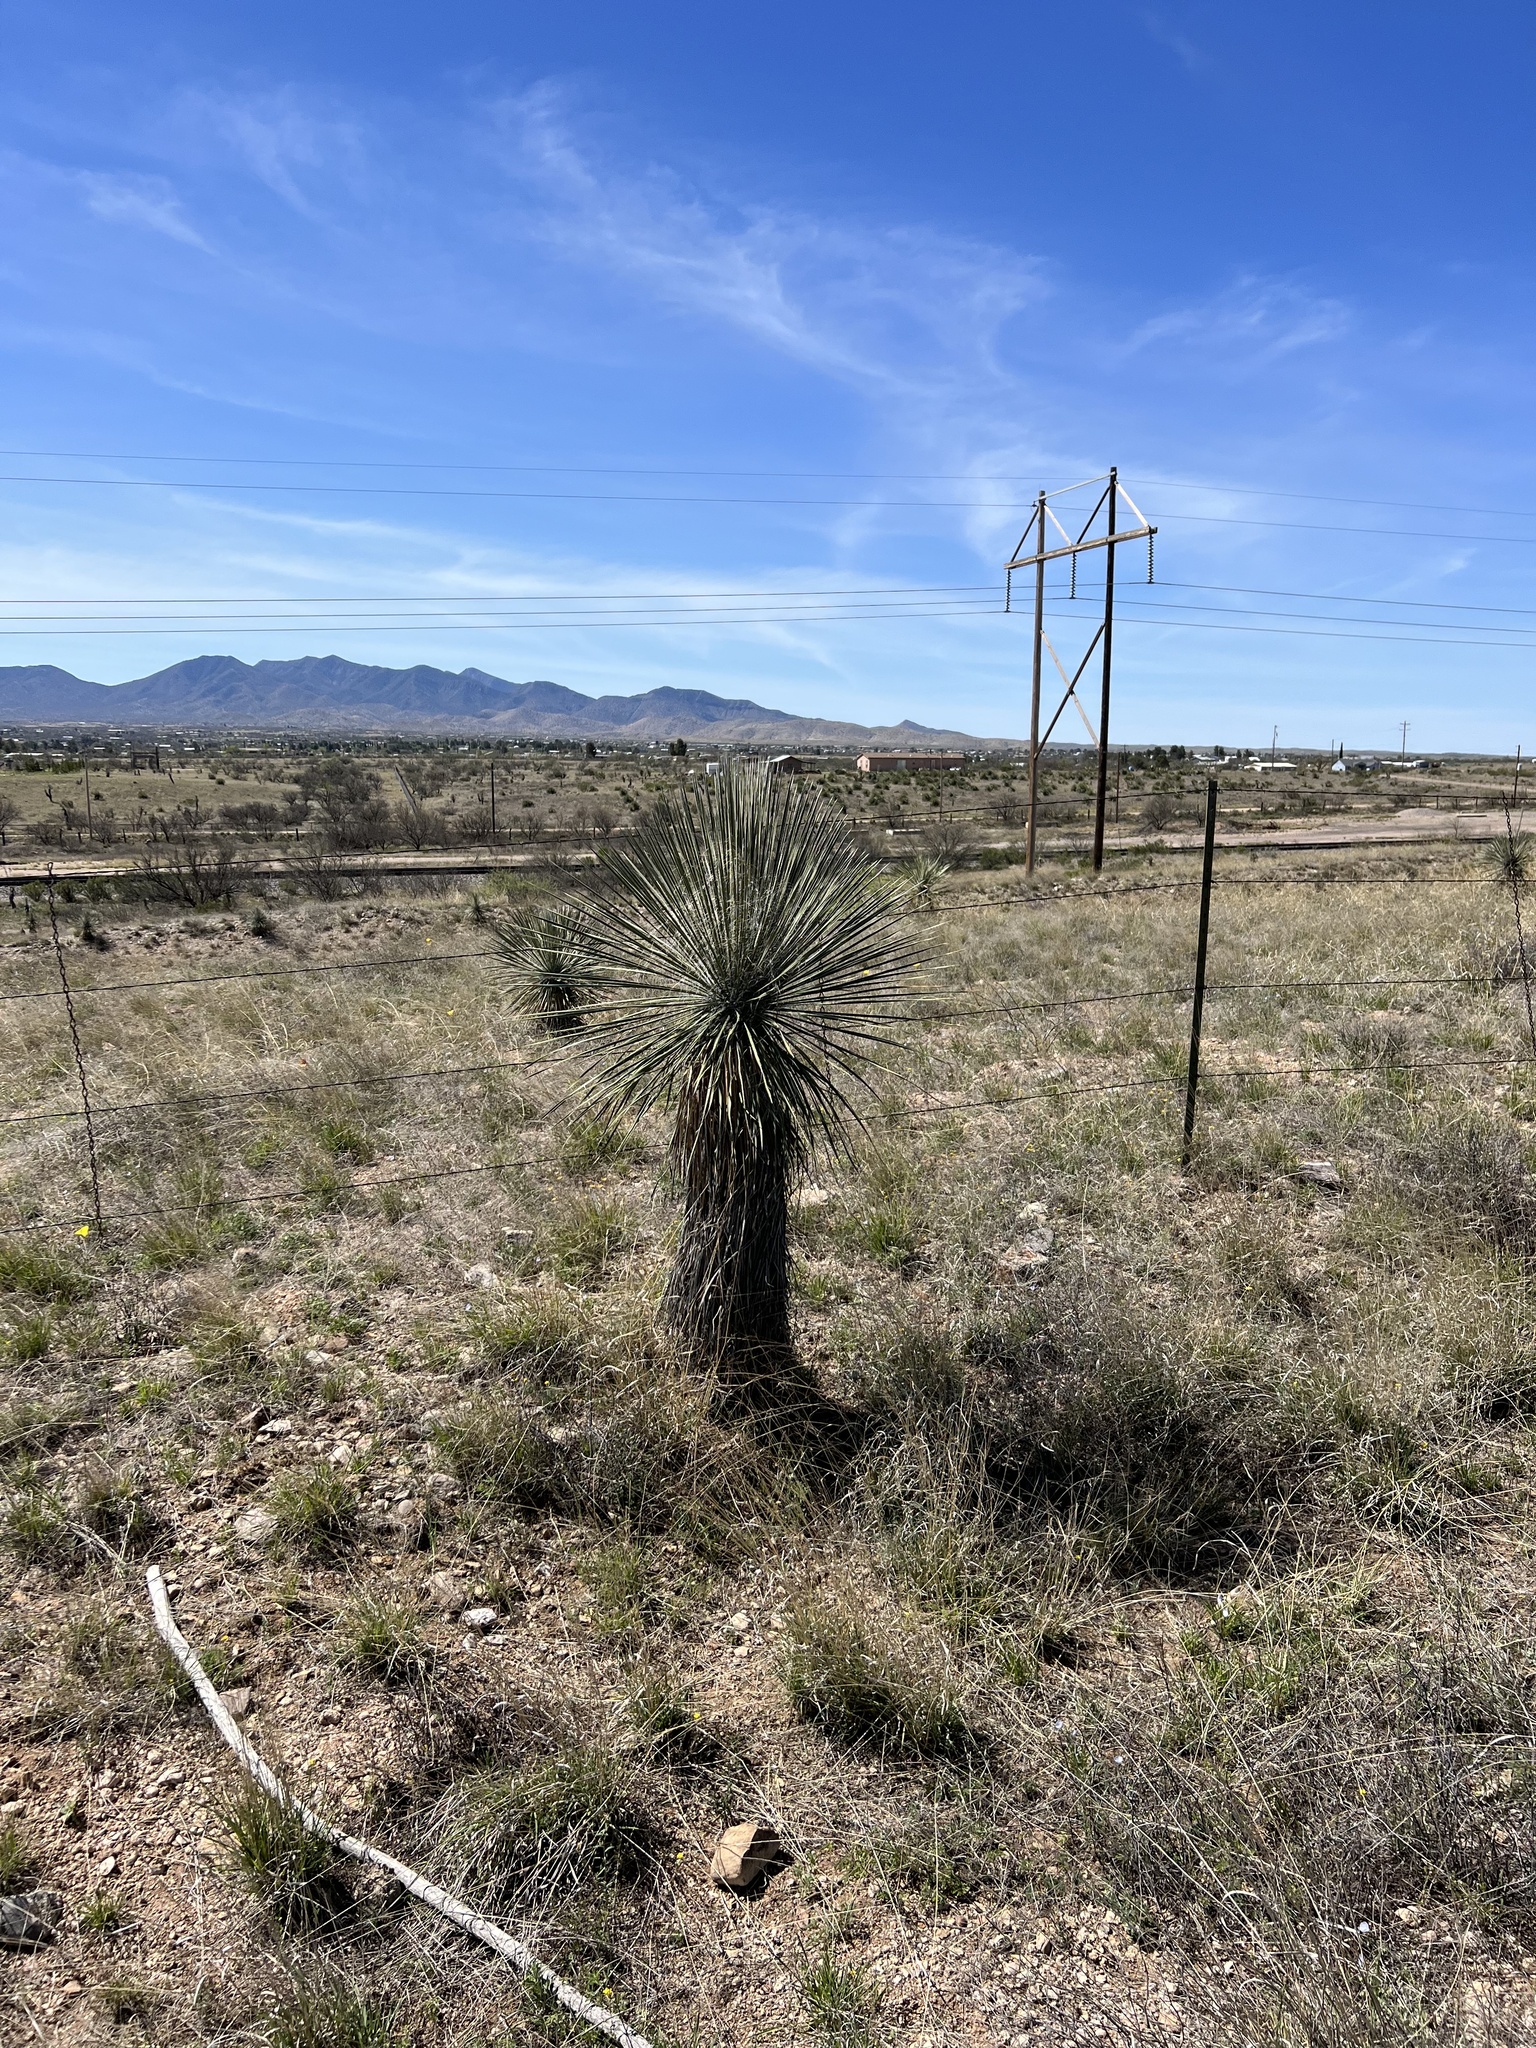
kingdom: Plantae
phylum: Tracheophyta
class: Liliopsida
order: Asparagales
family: Asparagaceae
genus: Yucca
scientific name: Yucca elata
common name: Palmella
